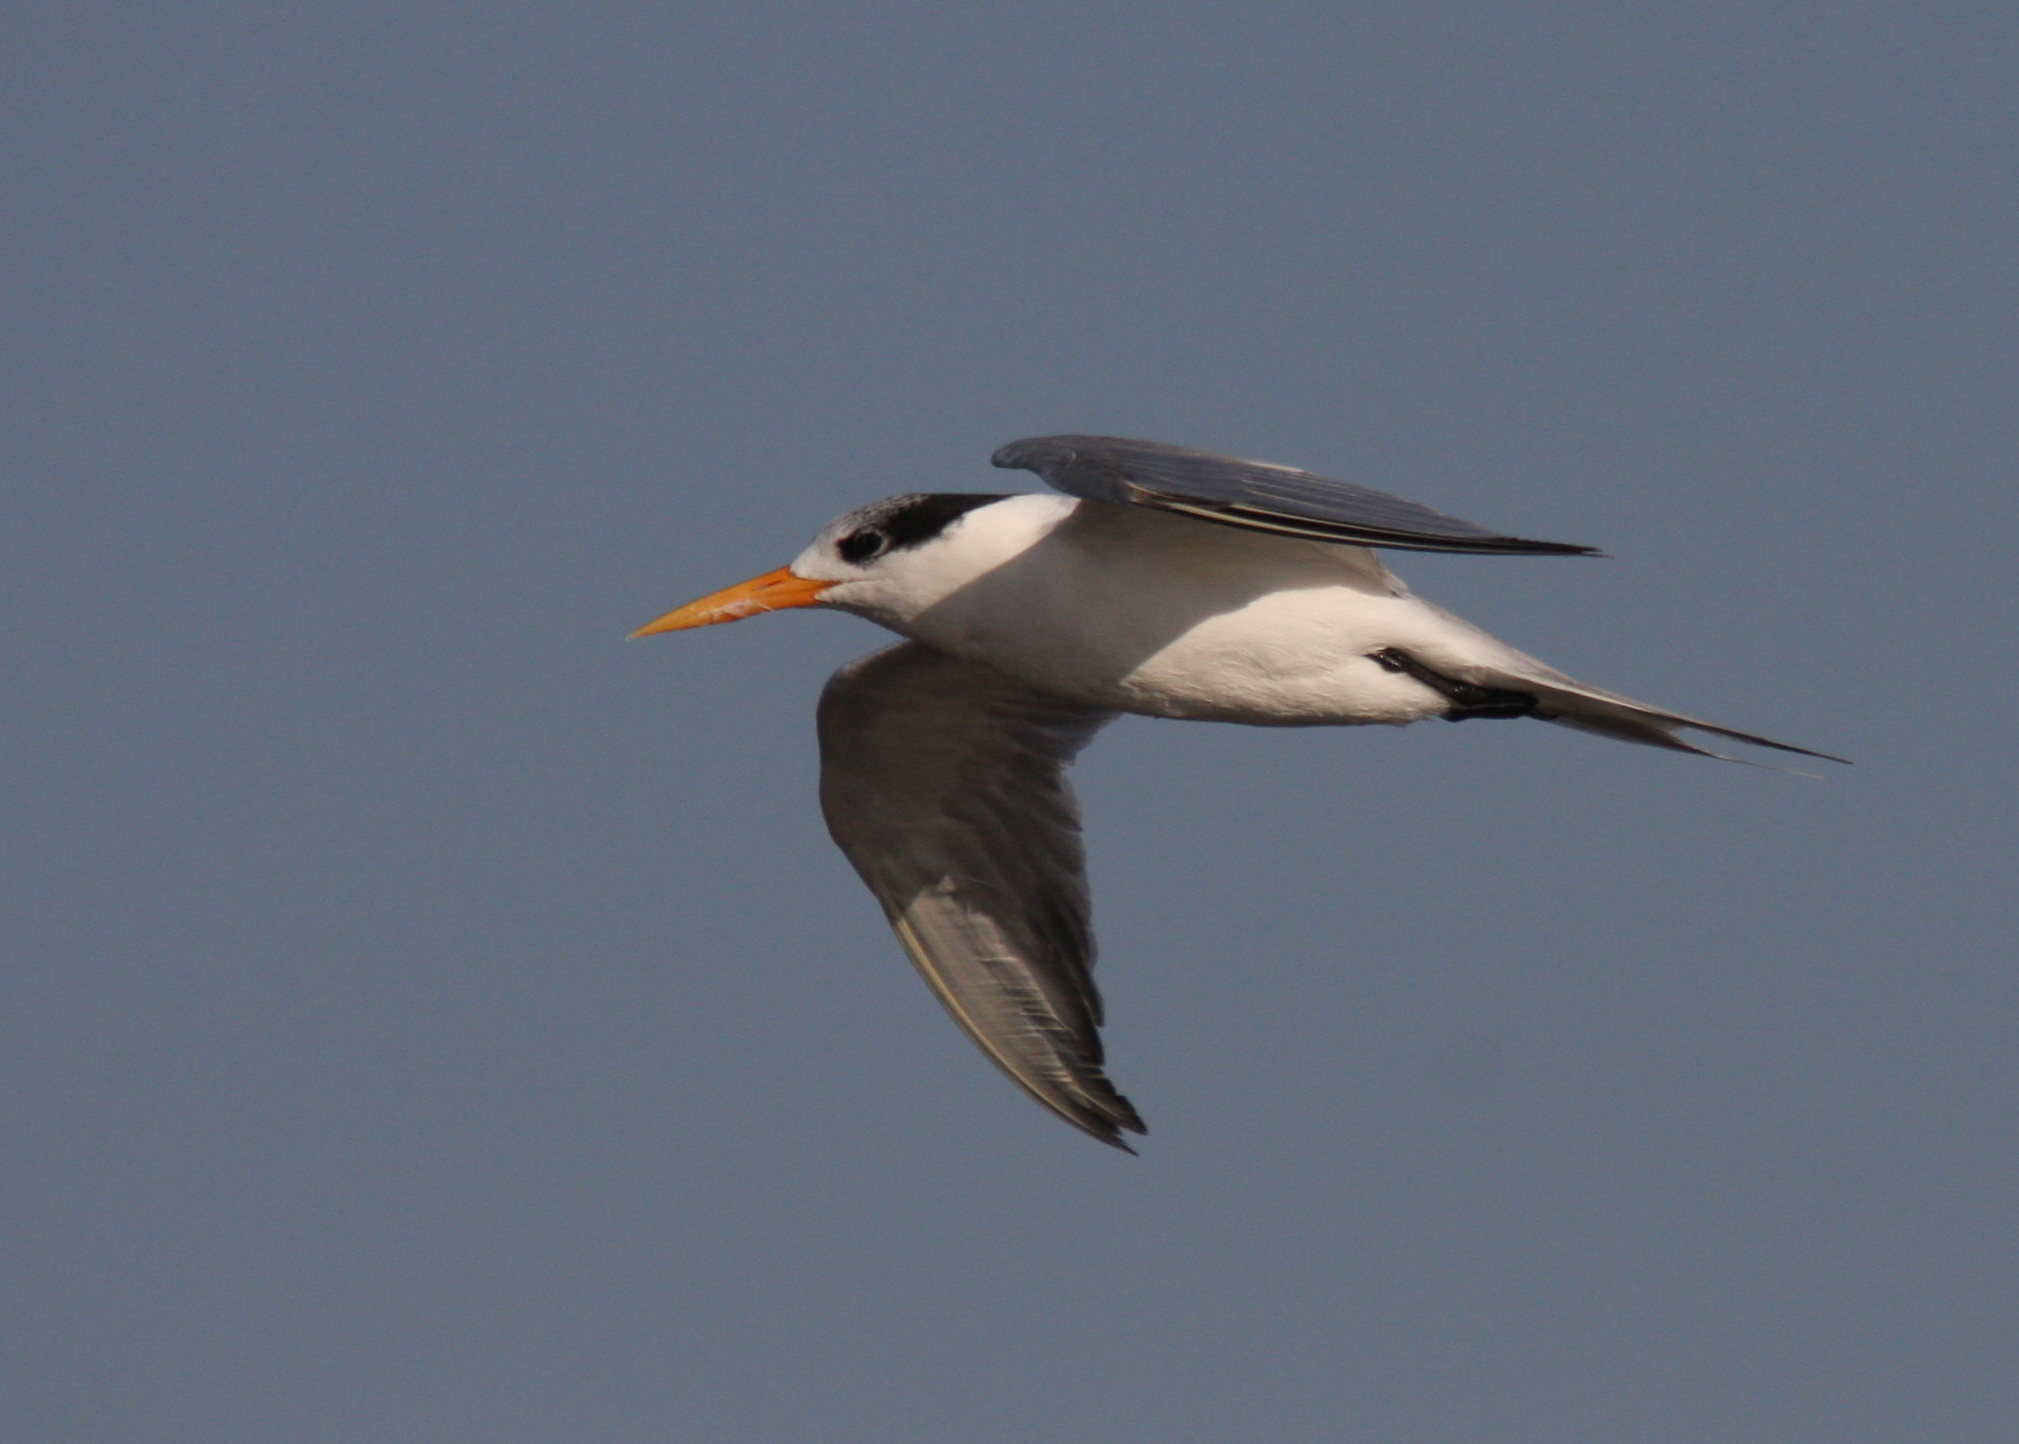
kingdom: Animalia
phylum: Chordata
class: Aves
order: Charadriiformes
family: Laridae
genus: Thalasseus
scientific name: Thalasseus bengalensis
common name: Lesser crested tern
